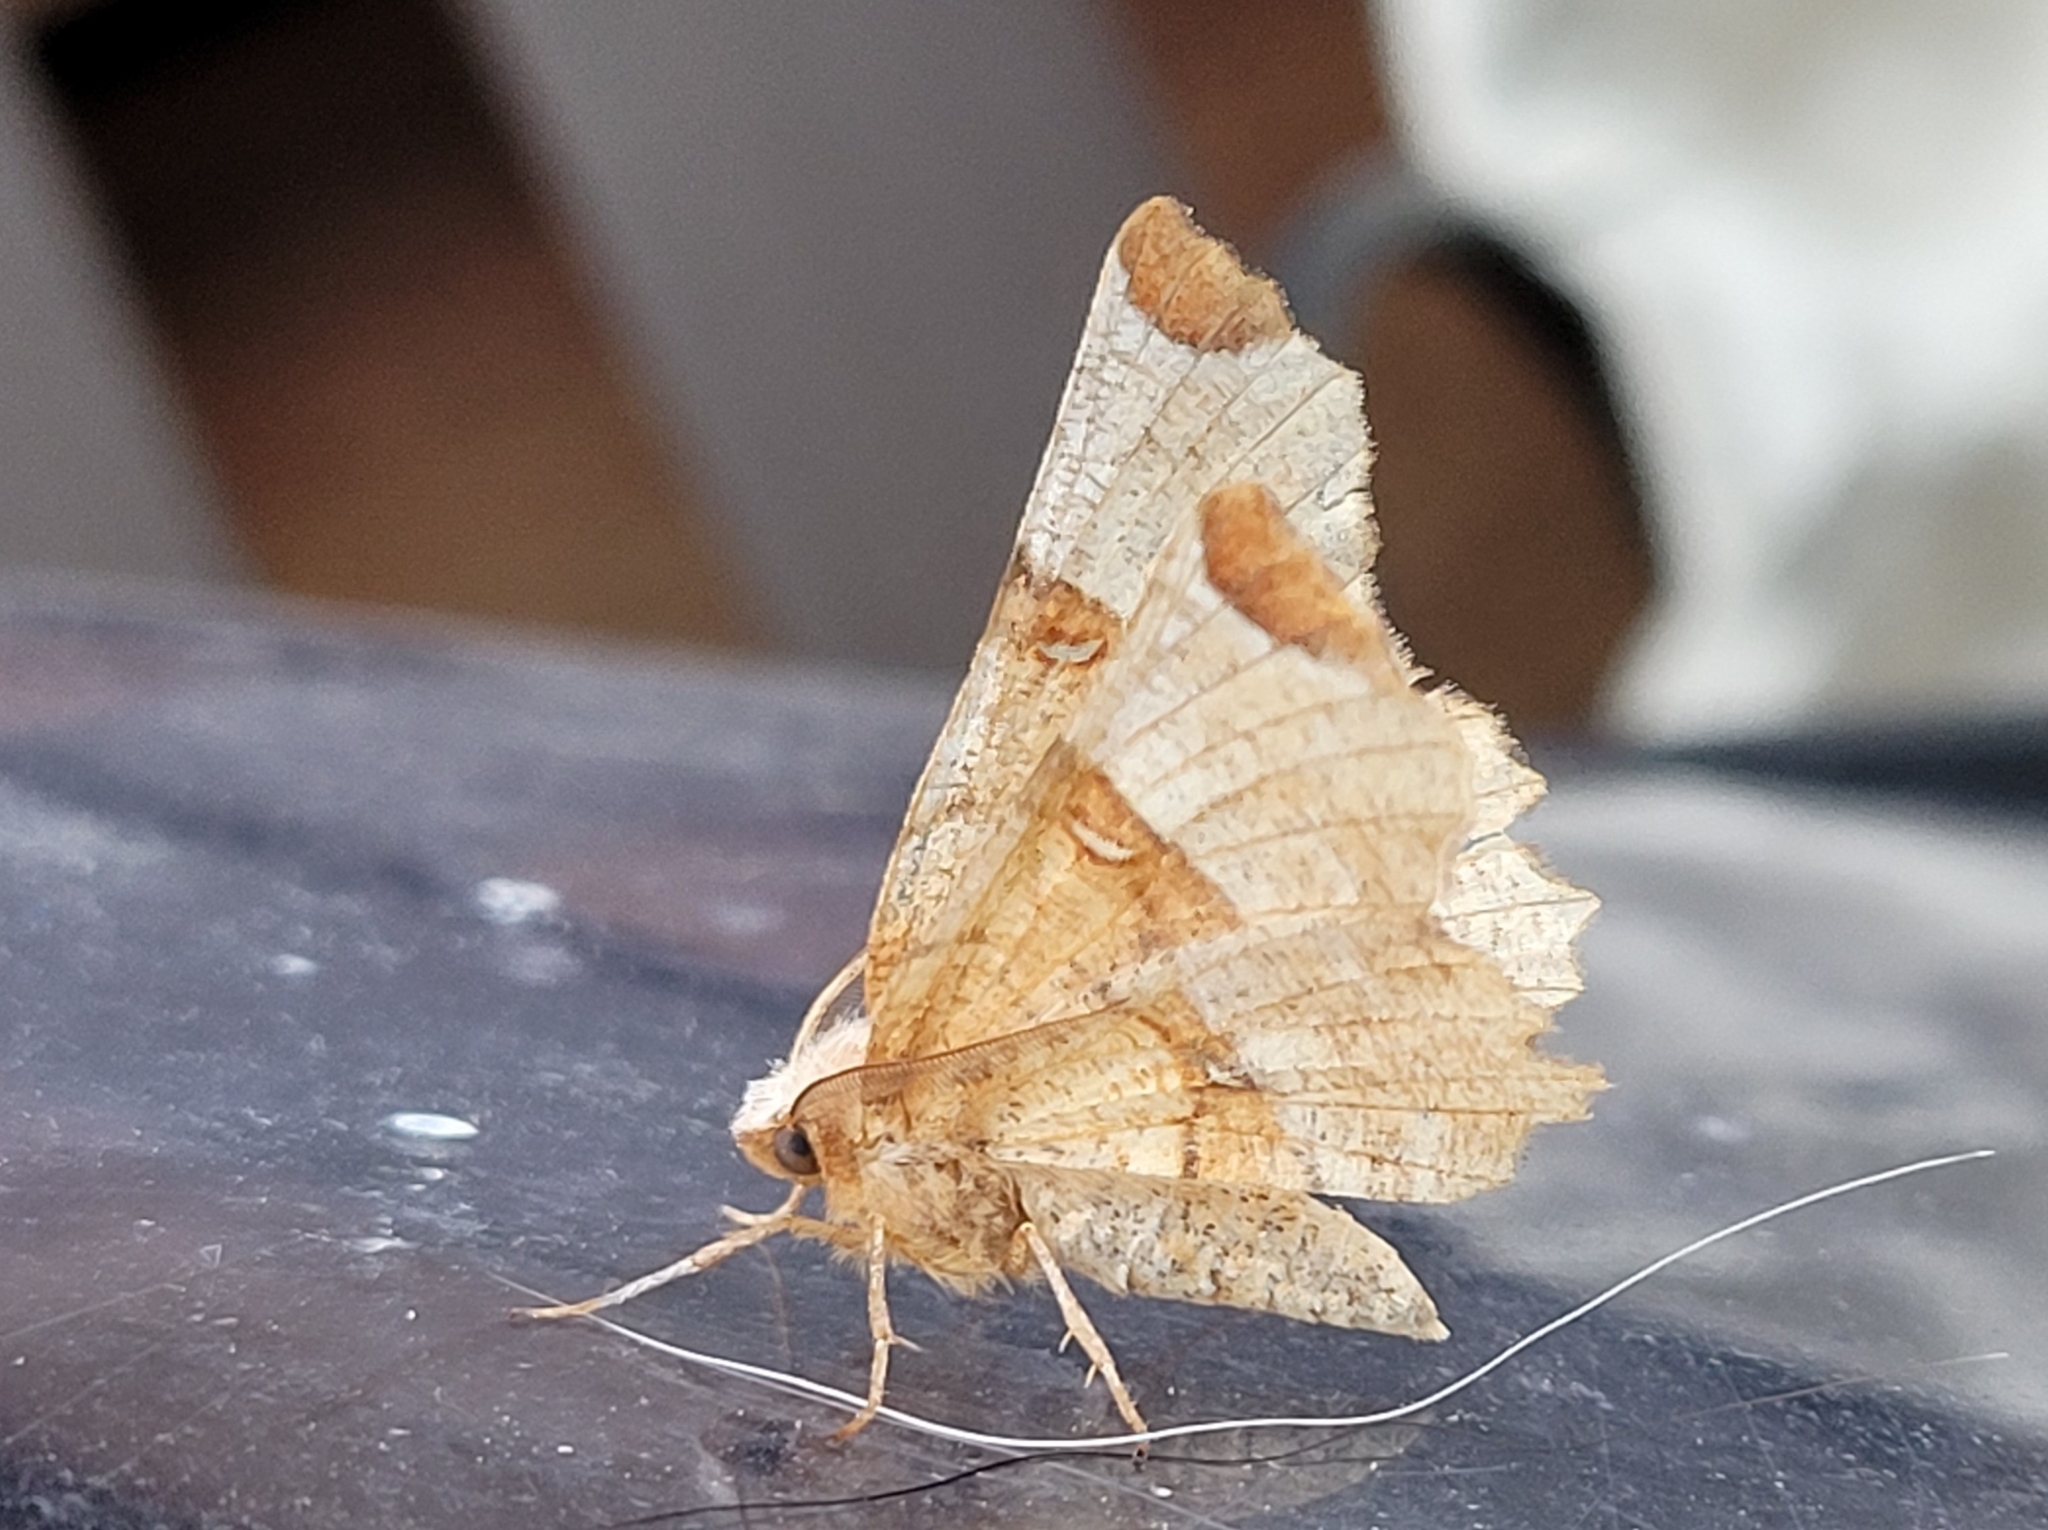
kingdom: Animalia
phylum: Arthropoda
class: Insecta
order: Lepidoptera
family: Geometridae
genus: Selenia
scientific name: Selenia lunularia
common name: Lunar thorn
